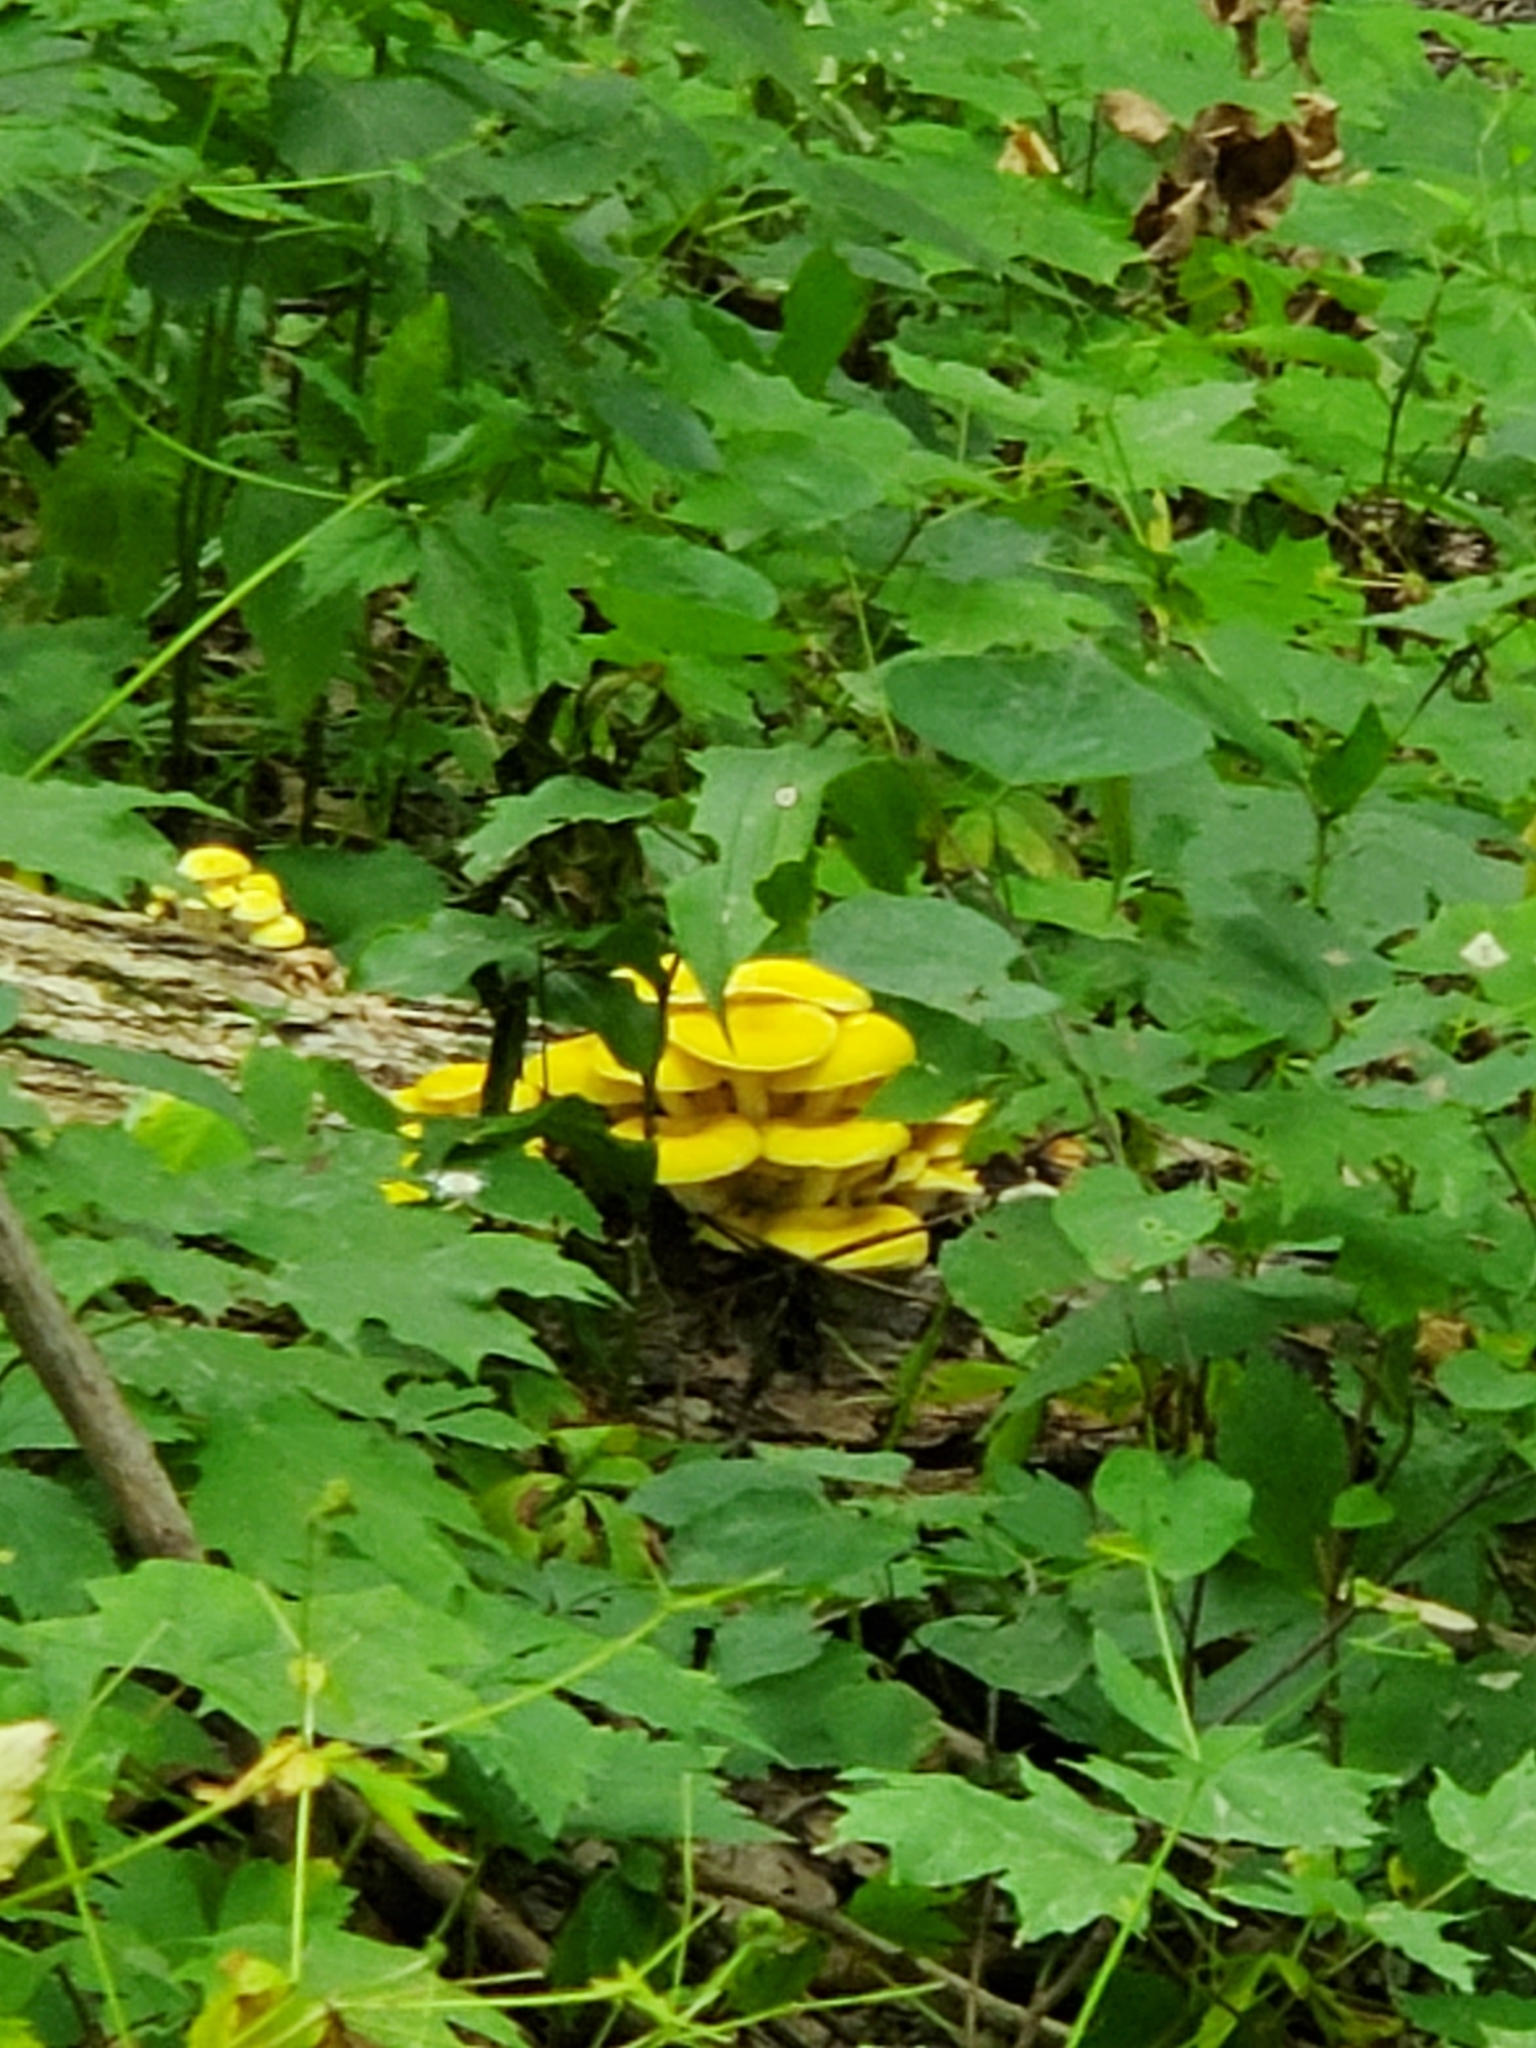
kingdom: Fungi
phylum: Basidiomycota
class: Agaricomycetes
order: Agaricales
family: Pleurotaceae
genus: Pleurotus
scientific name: Pleurotus citrinopileatus
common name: Golden oyster mushroom
